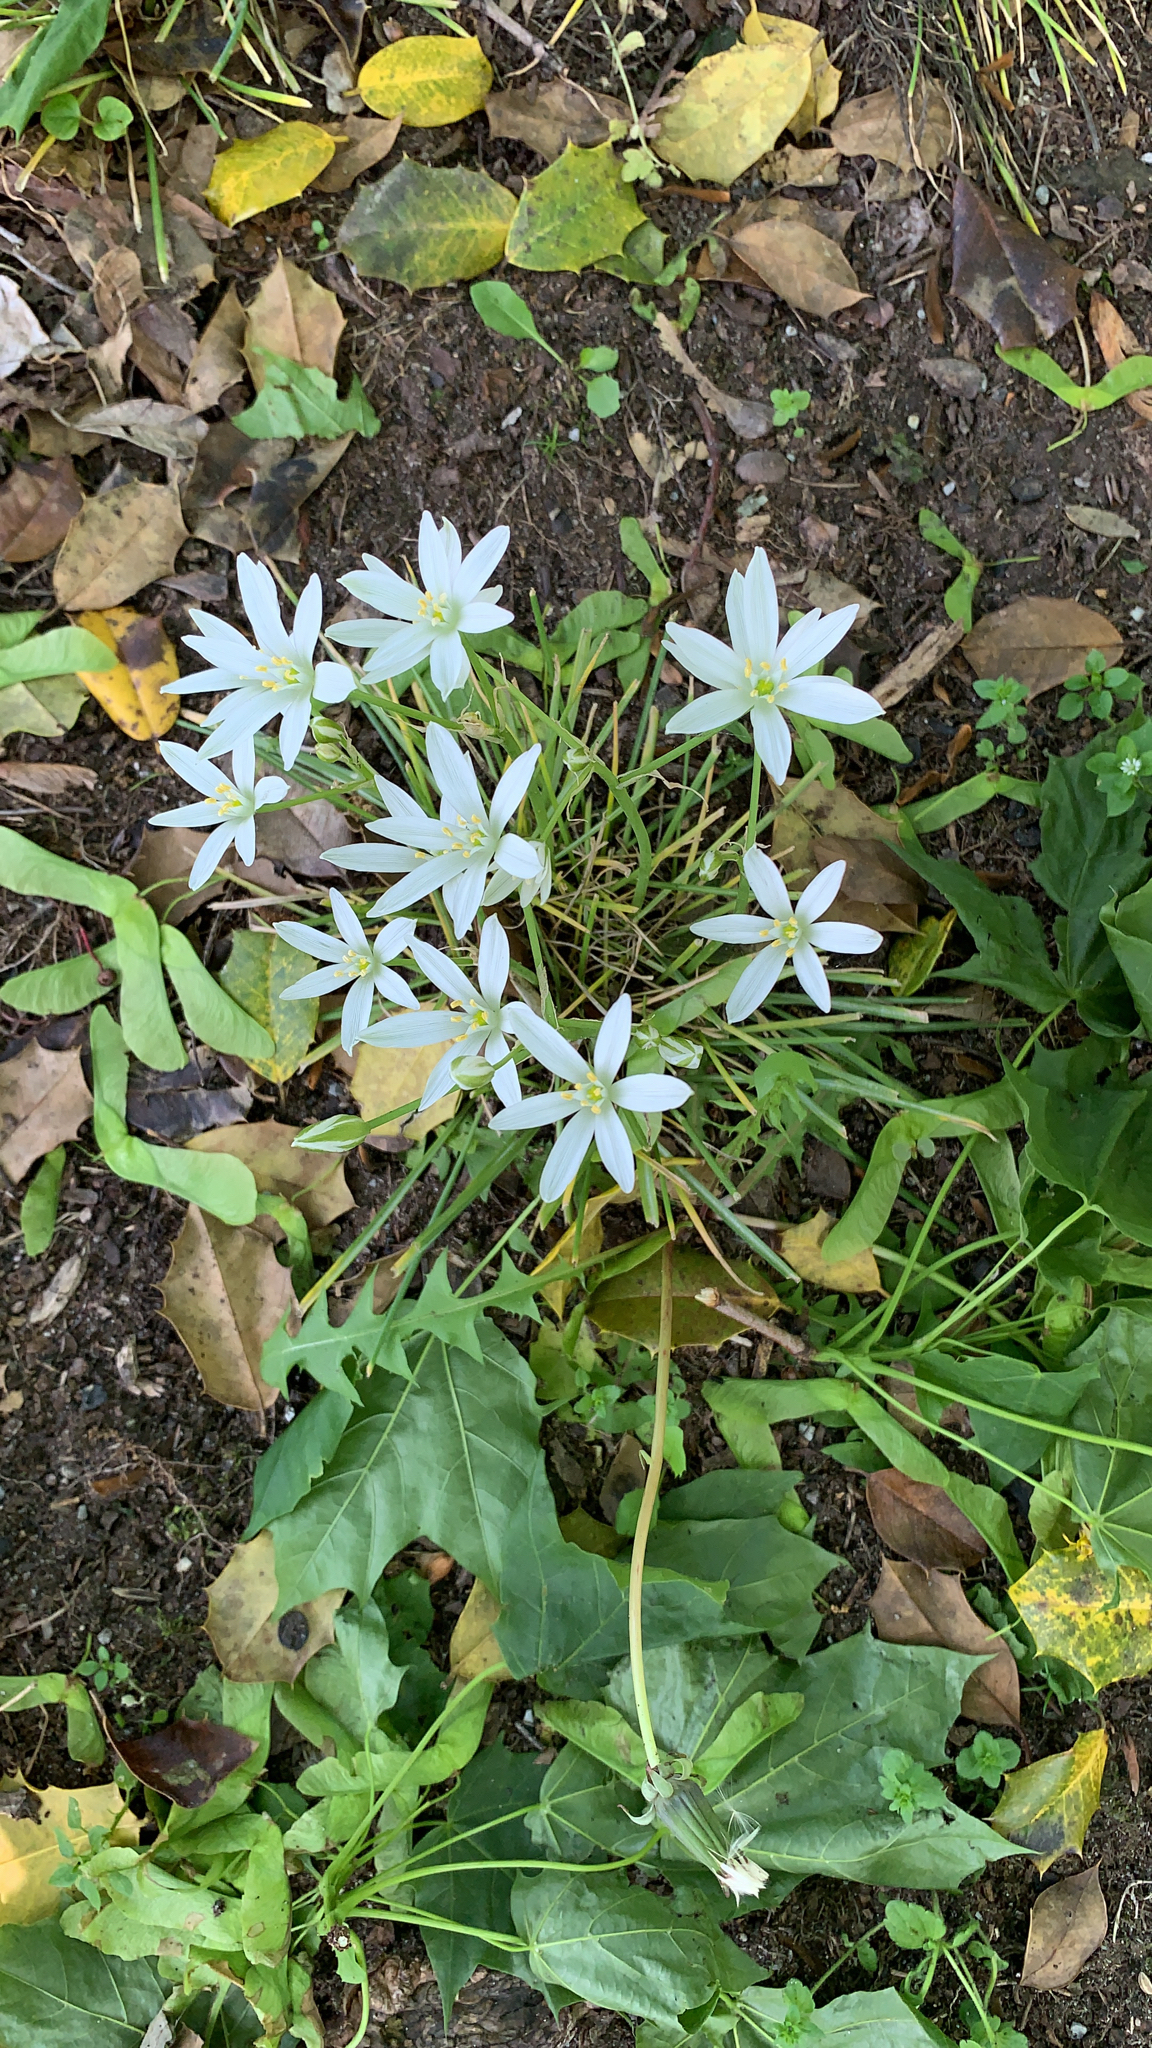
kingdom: Plantae
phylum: Tracheophyta
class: Liliopsida
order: Asparagales
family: Asparagaceae
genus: Ornithogalum
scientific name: Ornithogalum umbellatum
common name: Garden star-of-bethlehem
